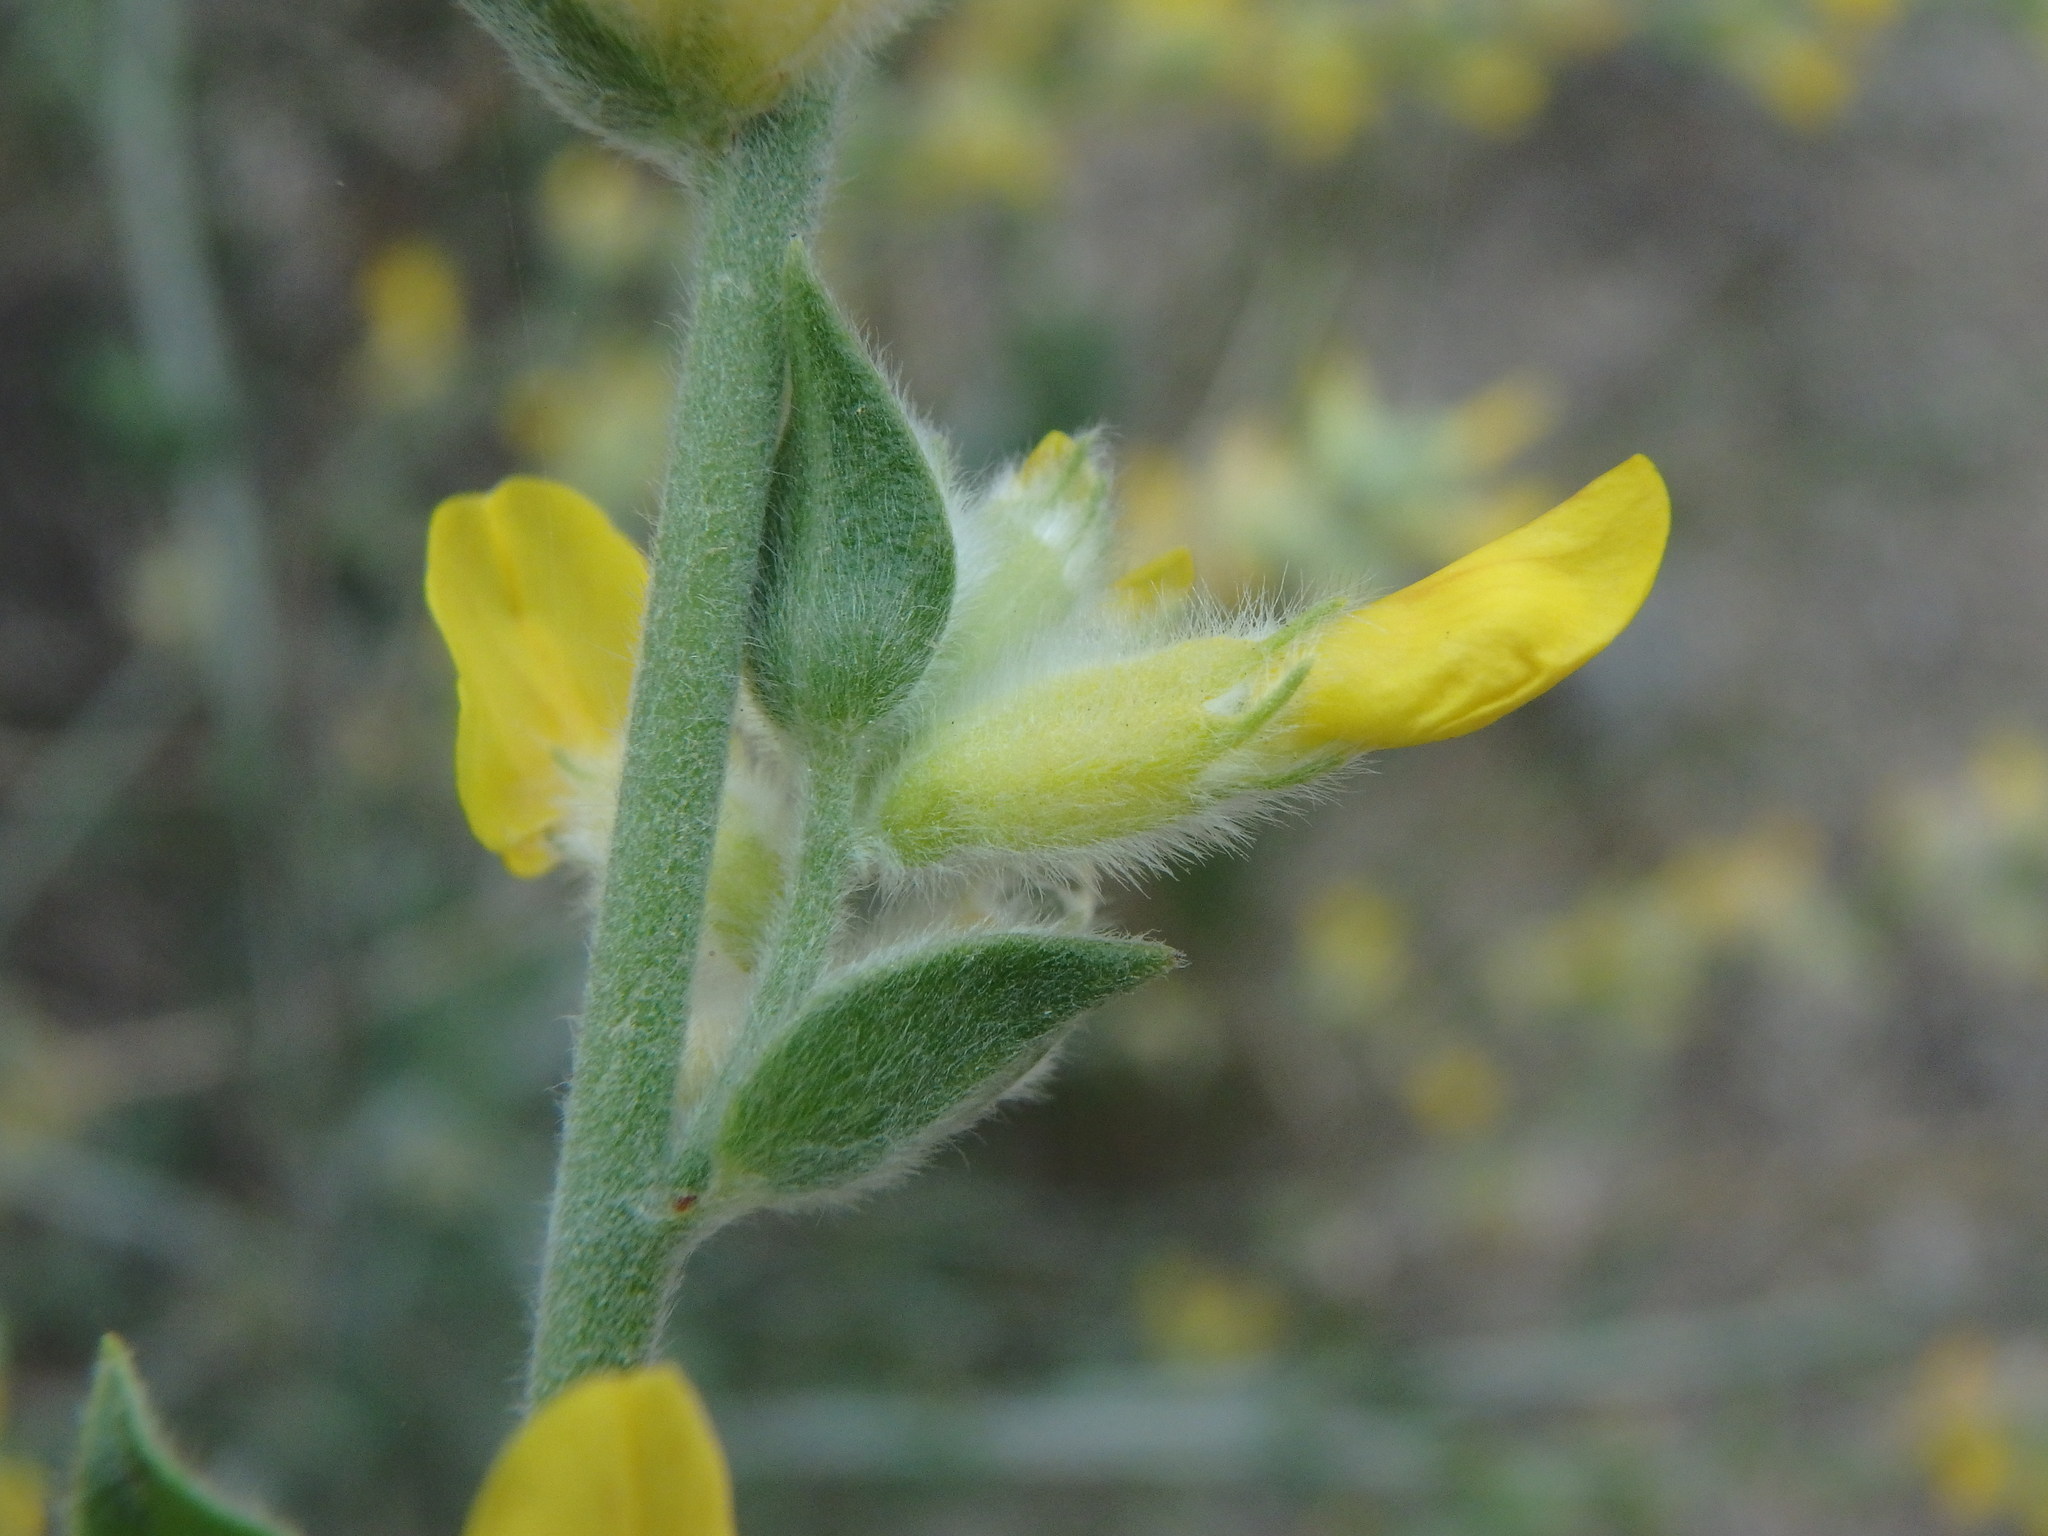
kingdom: Plantae
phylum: Tracheophyta
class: Magnoliopsida
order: Fabales
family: Fabaceae
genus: Anthyllis
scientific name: Anthyllis cytisoides
